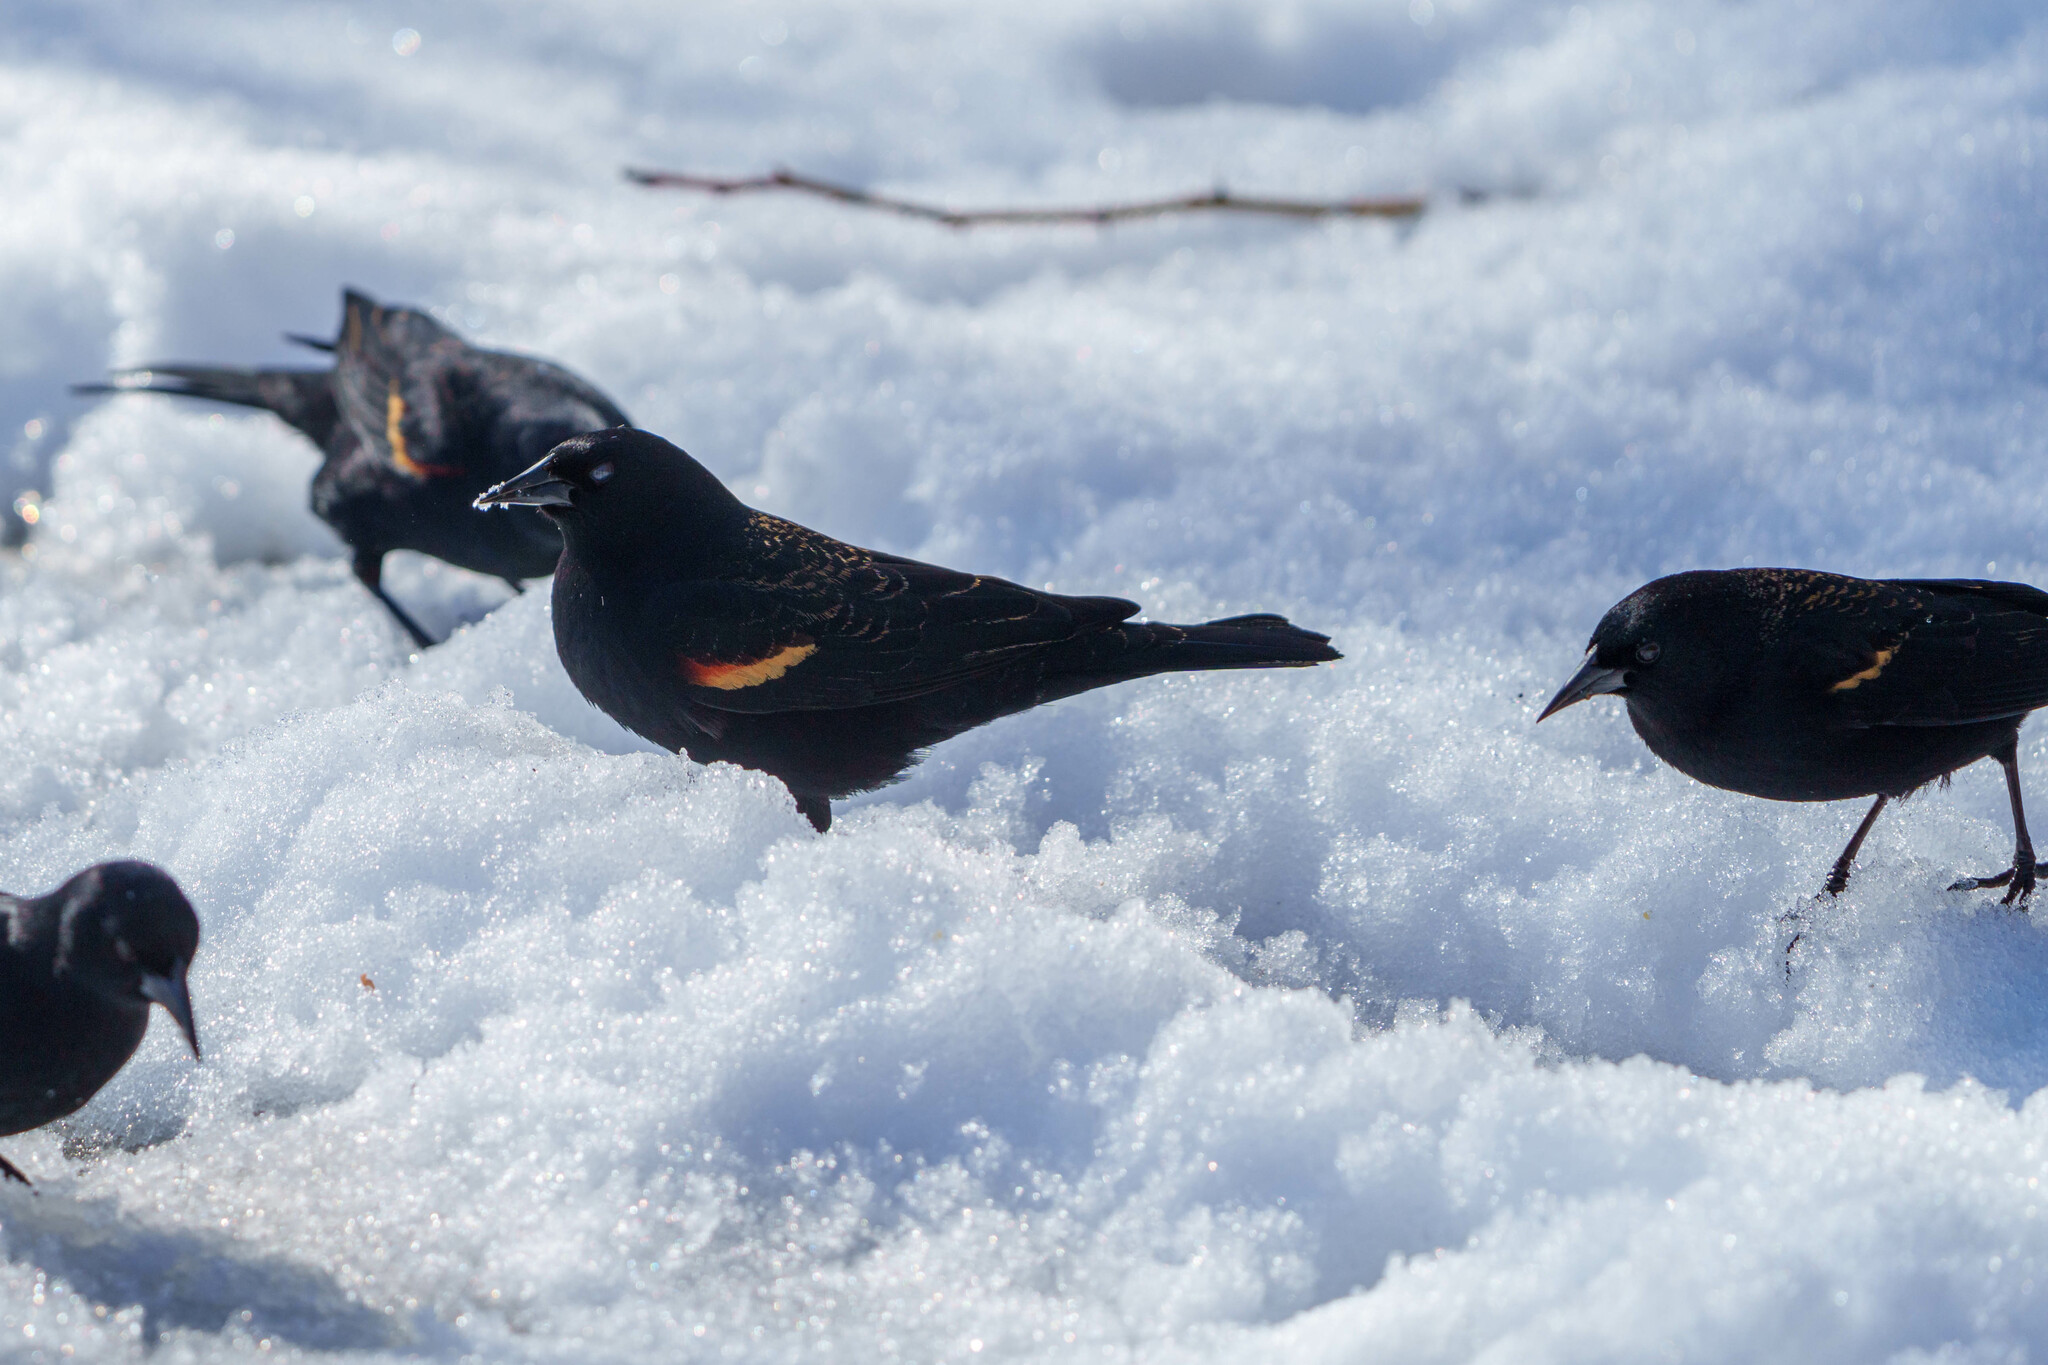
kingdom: Animalia
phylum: Chordata
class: Aves
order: Passeriformes
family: Icteridae
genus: Agelaius
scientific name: Agelaius phoeniceus
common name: Red-winged blackbird
